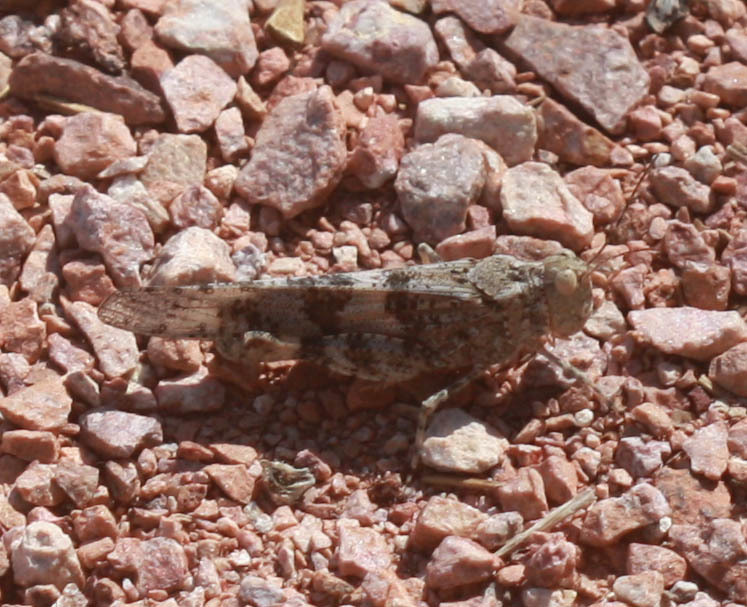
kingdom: Animalia
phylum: Arthropoda
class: Insecta
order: Orthoptera
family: Acrididae
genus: Trimerotropis
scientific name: Trimerotropis pallidipennis
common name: Pallid-winged grasshopper
